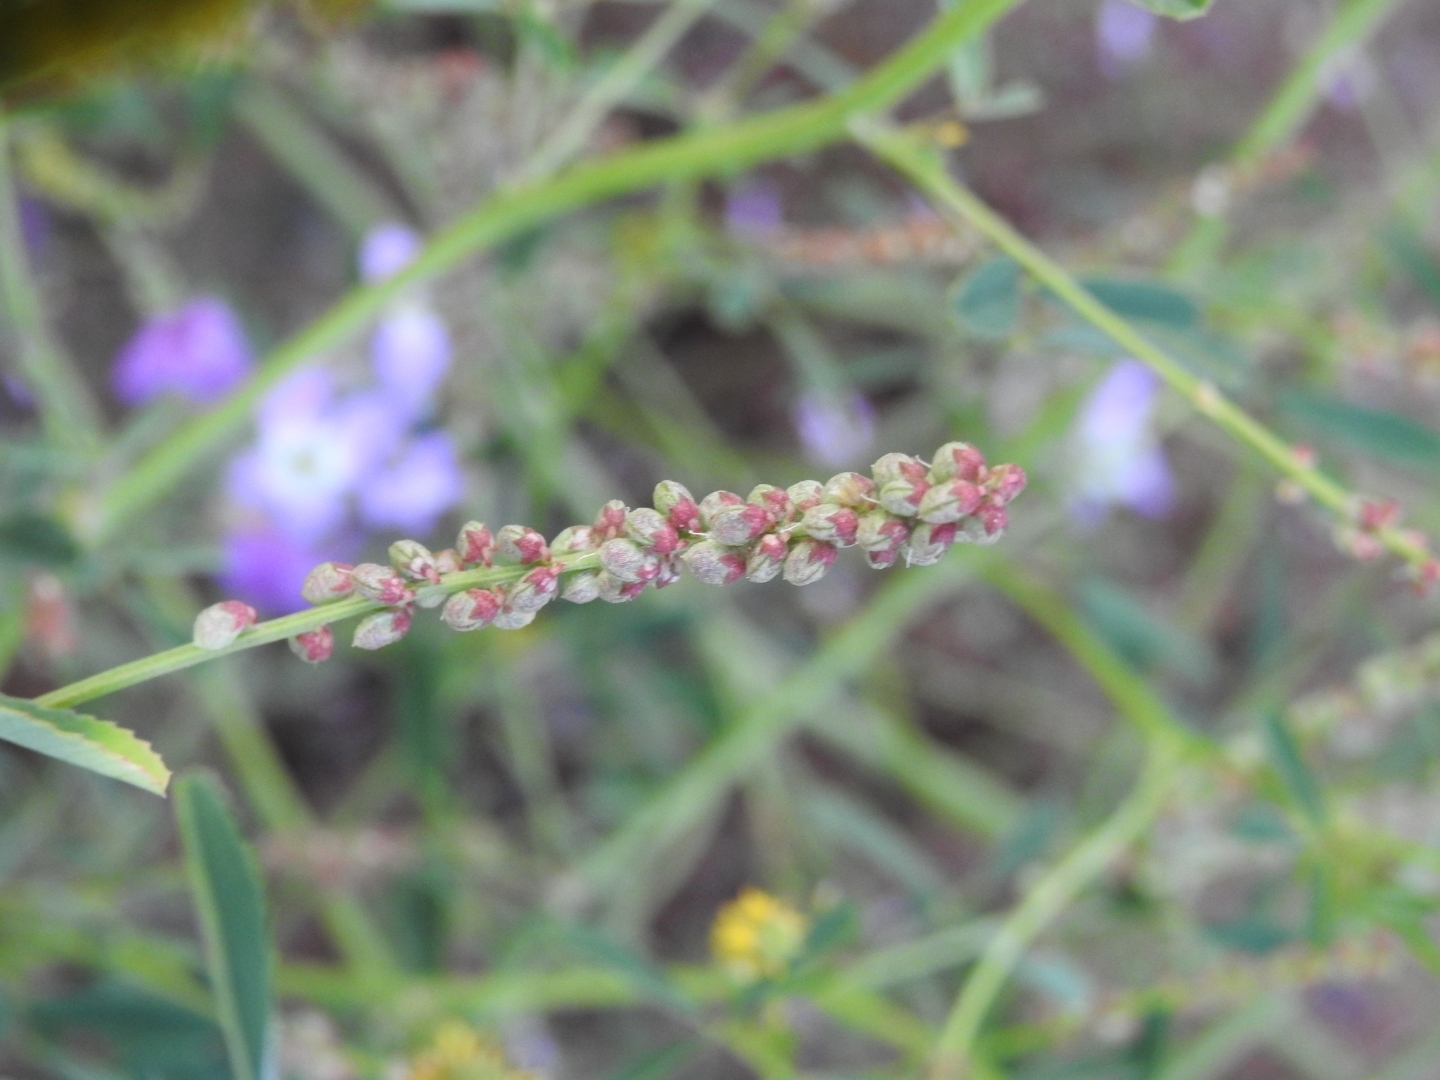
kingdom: Plantae
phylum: Tracheophyta
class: Magnoliopsida
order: Fabales
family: Fabaceae
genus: Melilotus
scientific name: Melilotus indicus
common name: Small melilot
